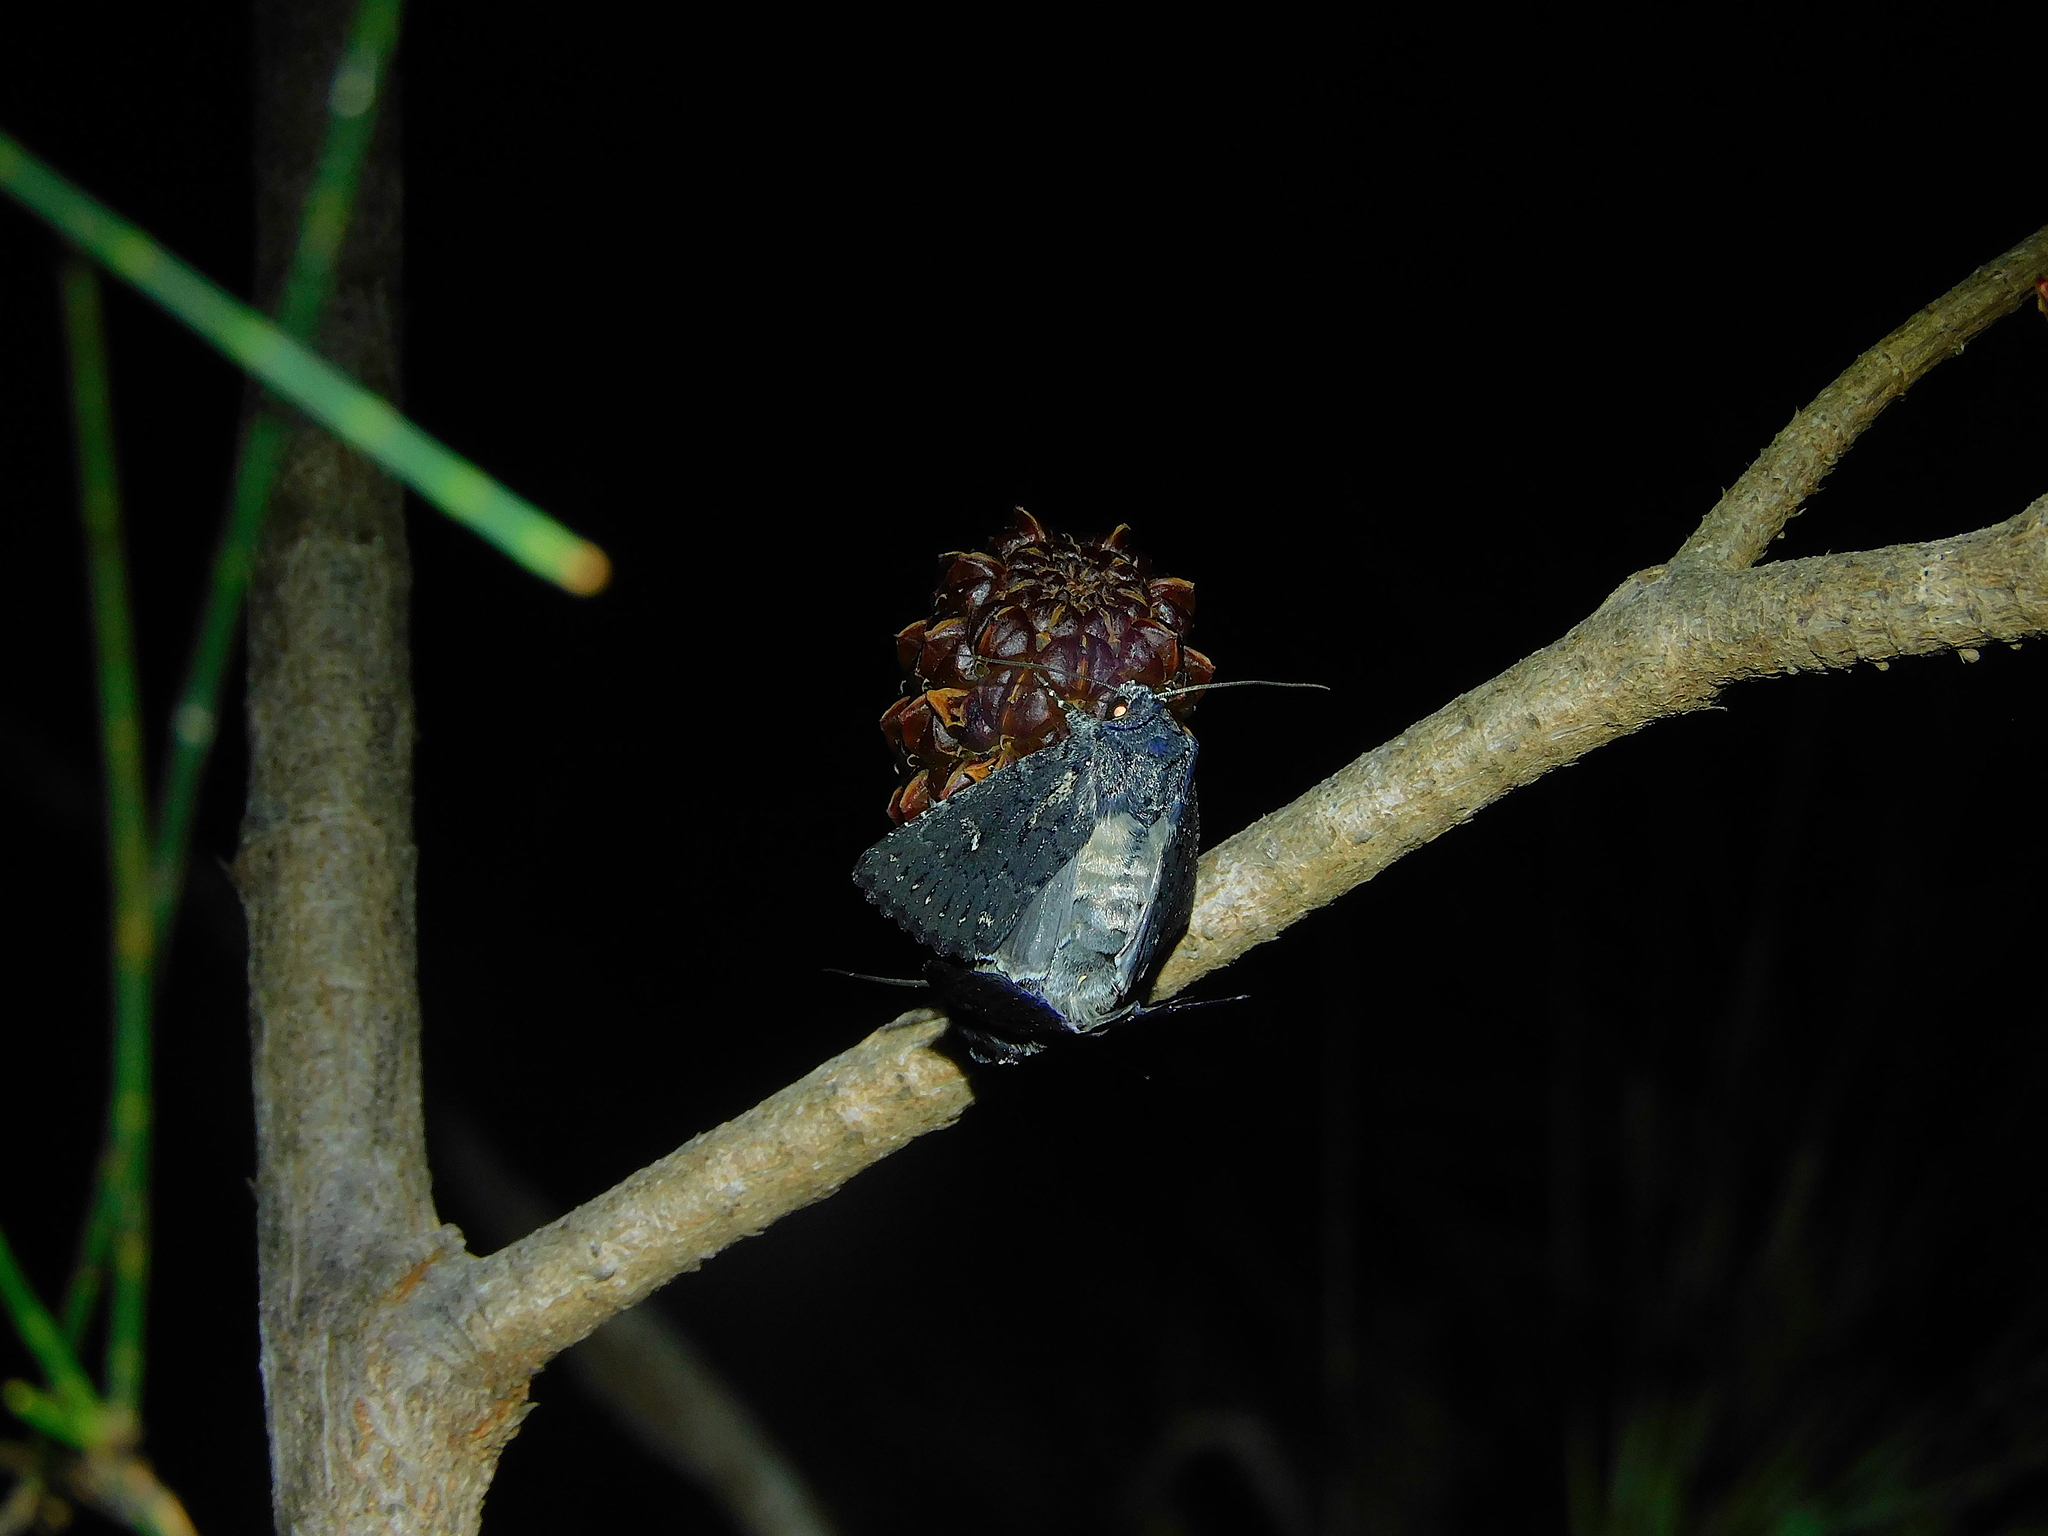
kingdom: Animalia
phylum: Arthropoda
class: Insecta
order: Lepidoptera
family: Noctuidae
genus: Dasygaster
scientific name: Dasygaster epundoides
